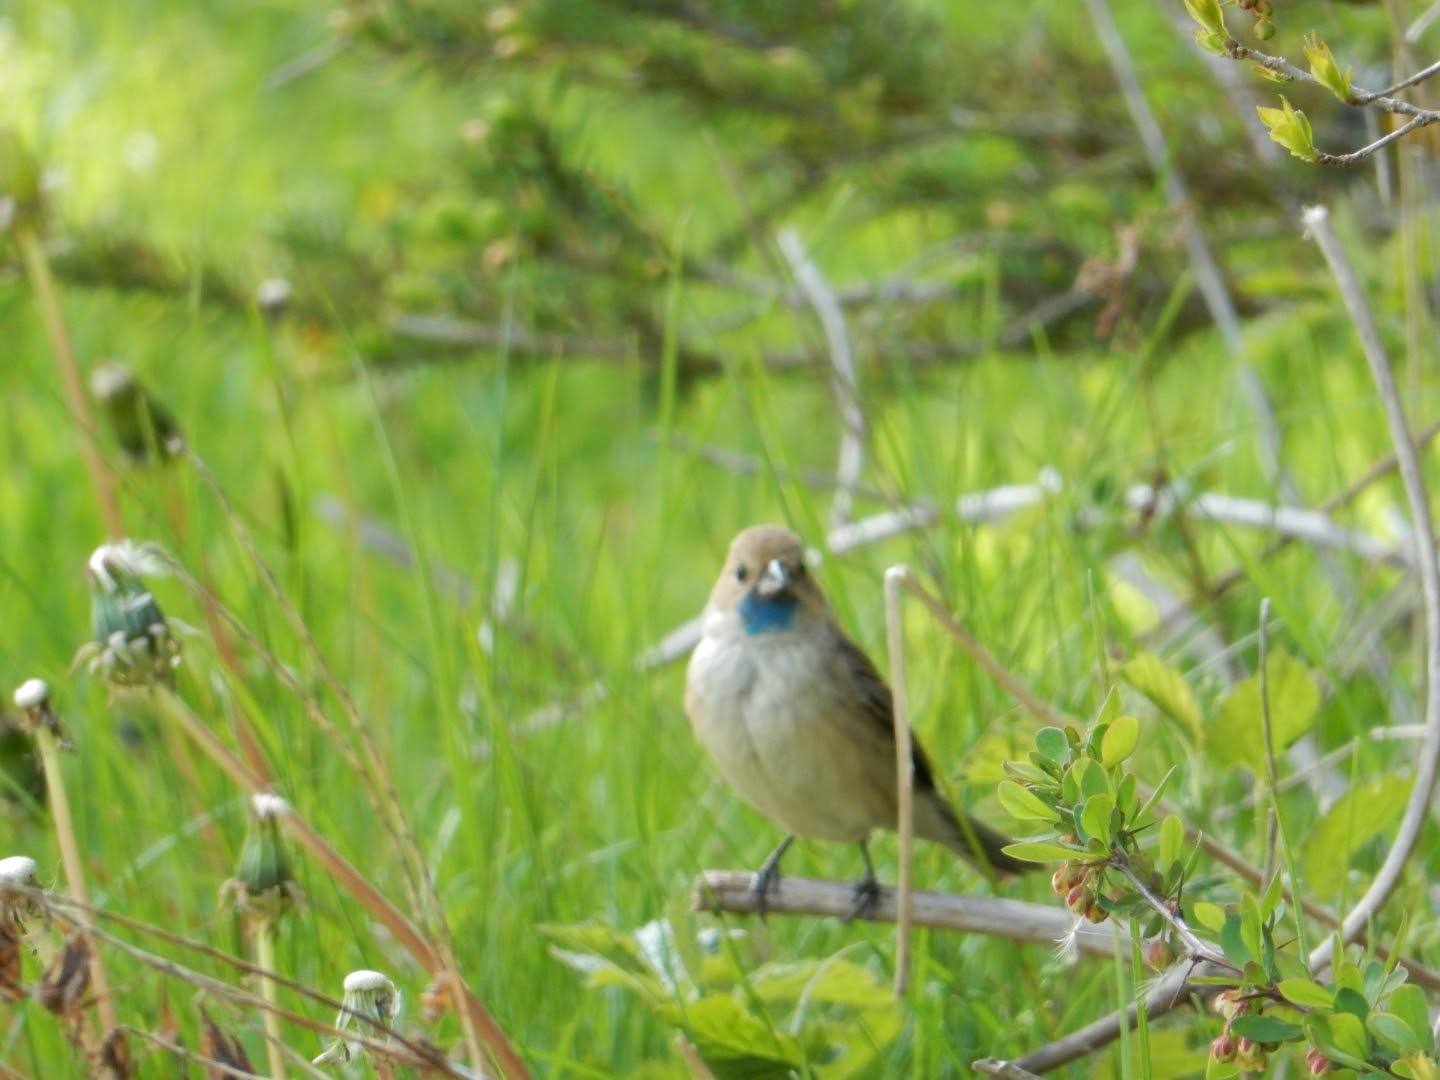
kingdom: Animalia
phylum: Chordata
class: Aves
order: Passeriformes
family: Cardinalidae
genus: Passerina
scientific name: Passerina cyanea
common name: Indigo bunting
